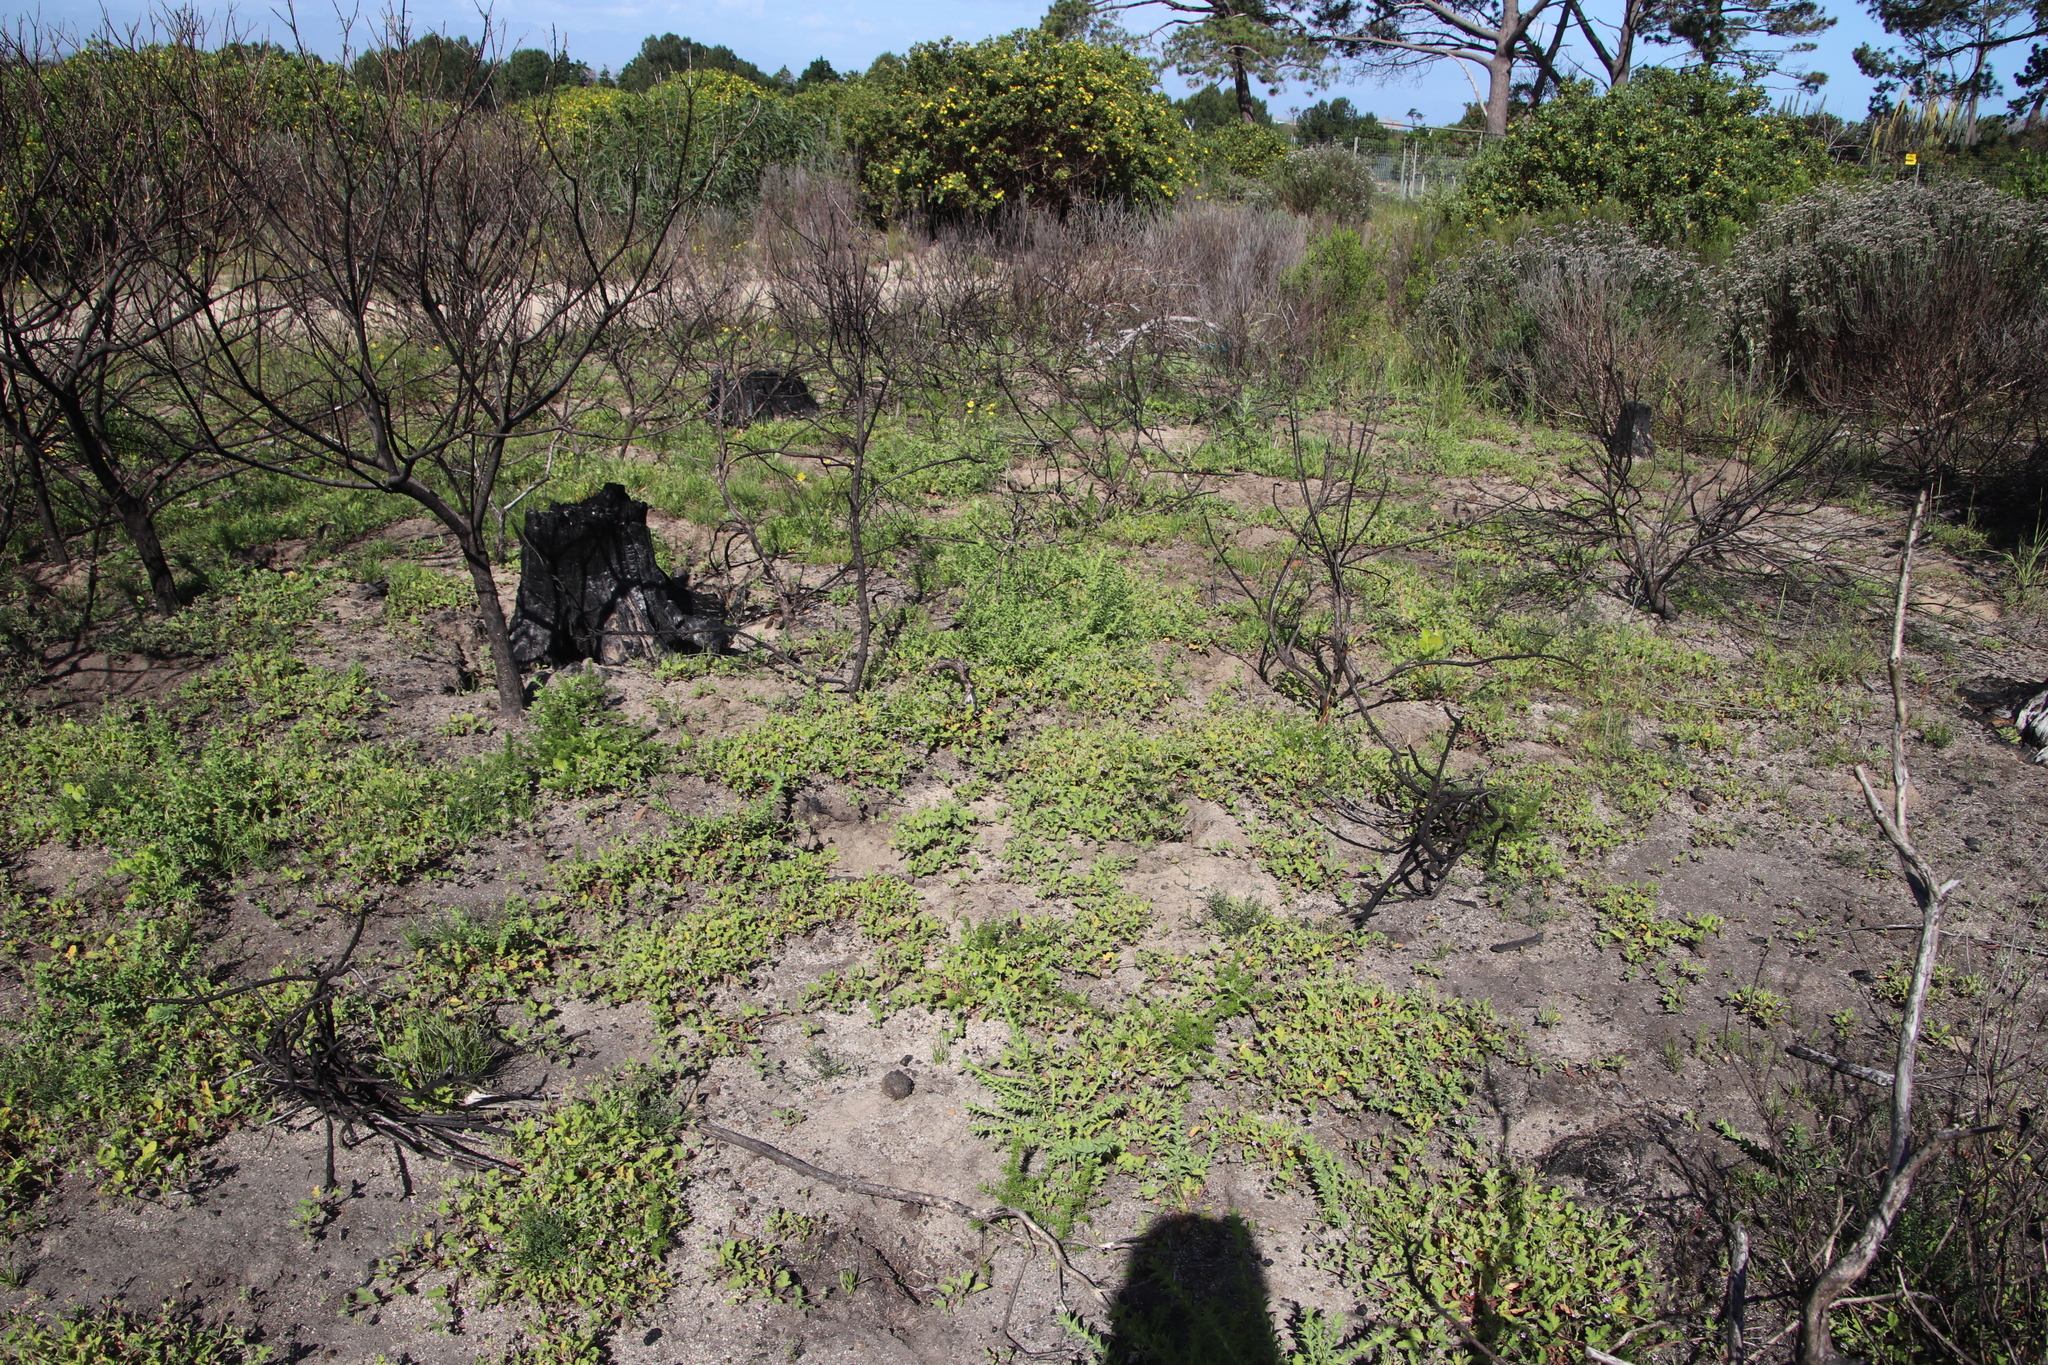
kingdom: Plantae
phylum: Tracheophyta
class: Magnoliopsida
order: Geraniales
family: Geraniaceae
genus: Pelargonium
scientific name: Pelargonium althaeoides
